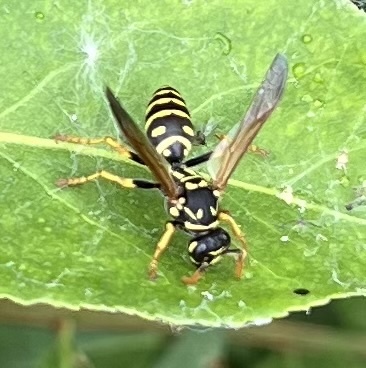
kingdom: Animalia
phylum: Arthropoda
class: Insecta
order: Hymenoptera
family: Eumenidae
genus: Polistes
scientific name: Polistes dominula
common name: Paper wasp
